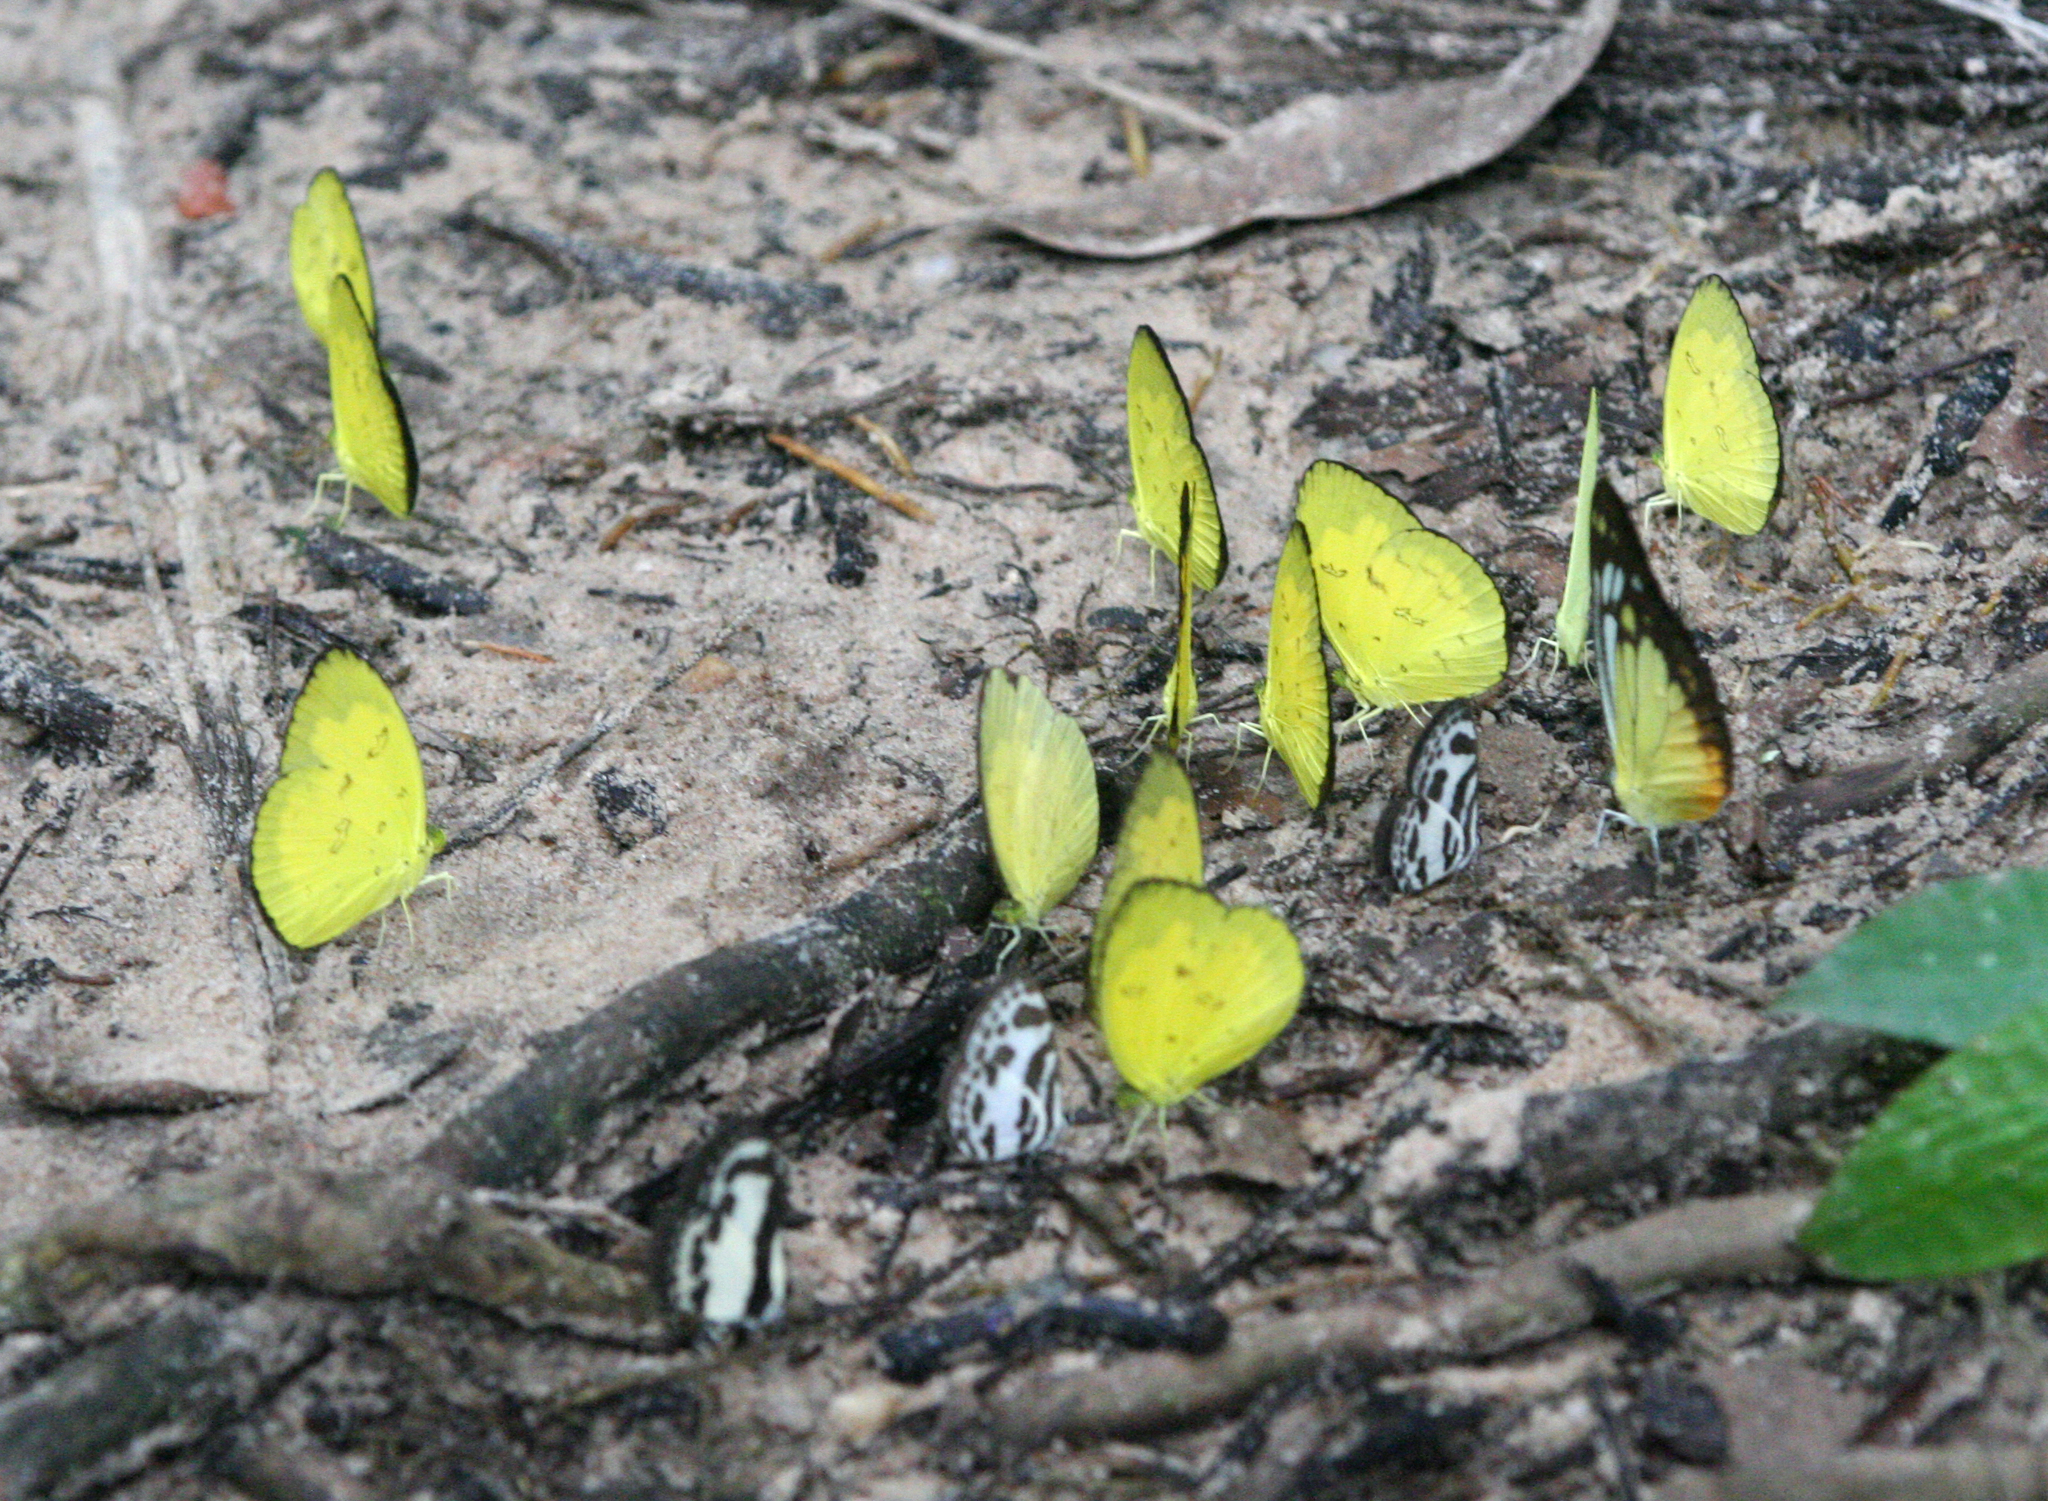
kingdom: Animalia
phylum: Arthropoda
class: Insecta
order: Lepidoptera
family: Pieridae
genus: Eurema
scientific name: Eurema andersoni
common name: One-spot yellow grass
